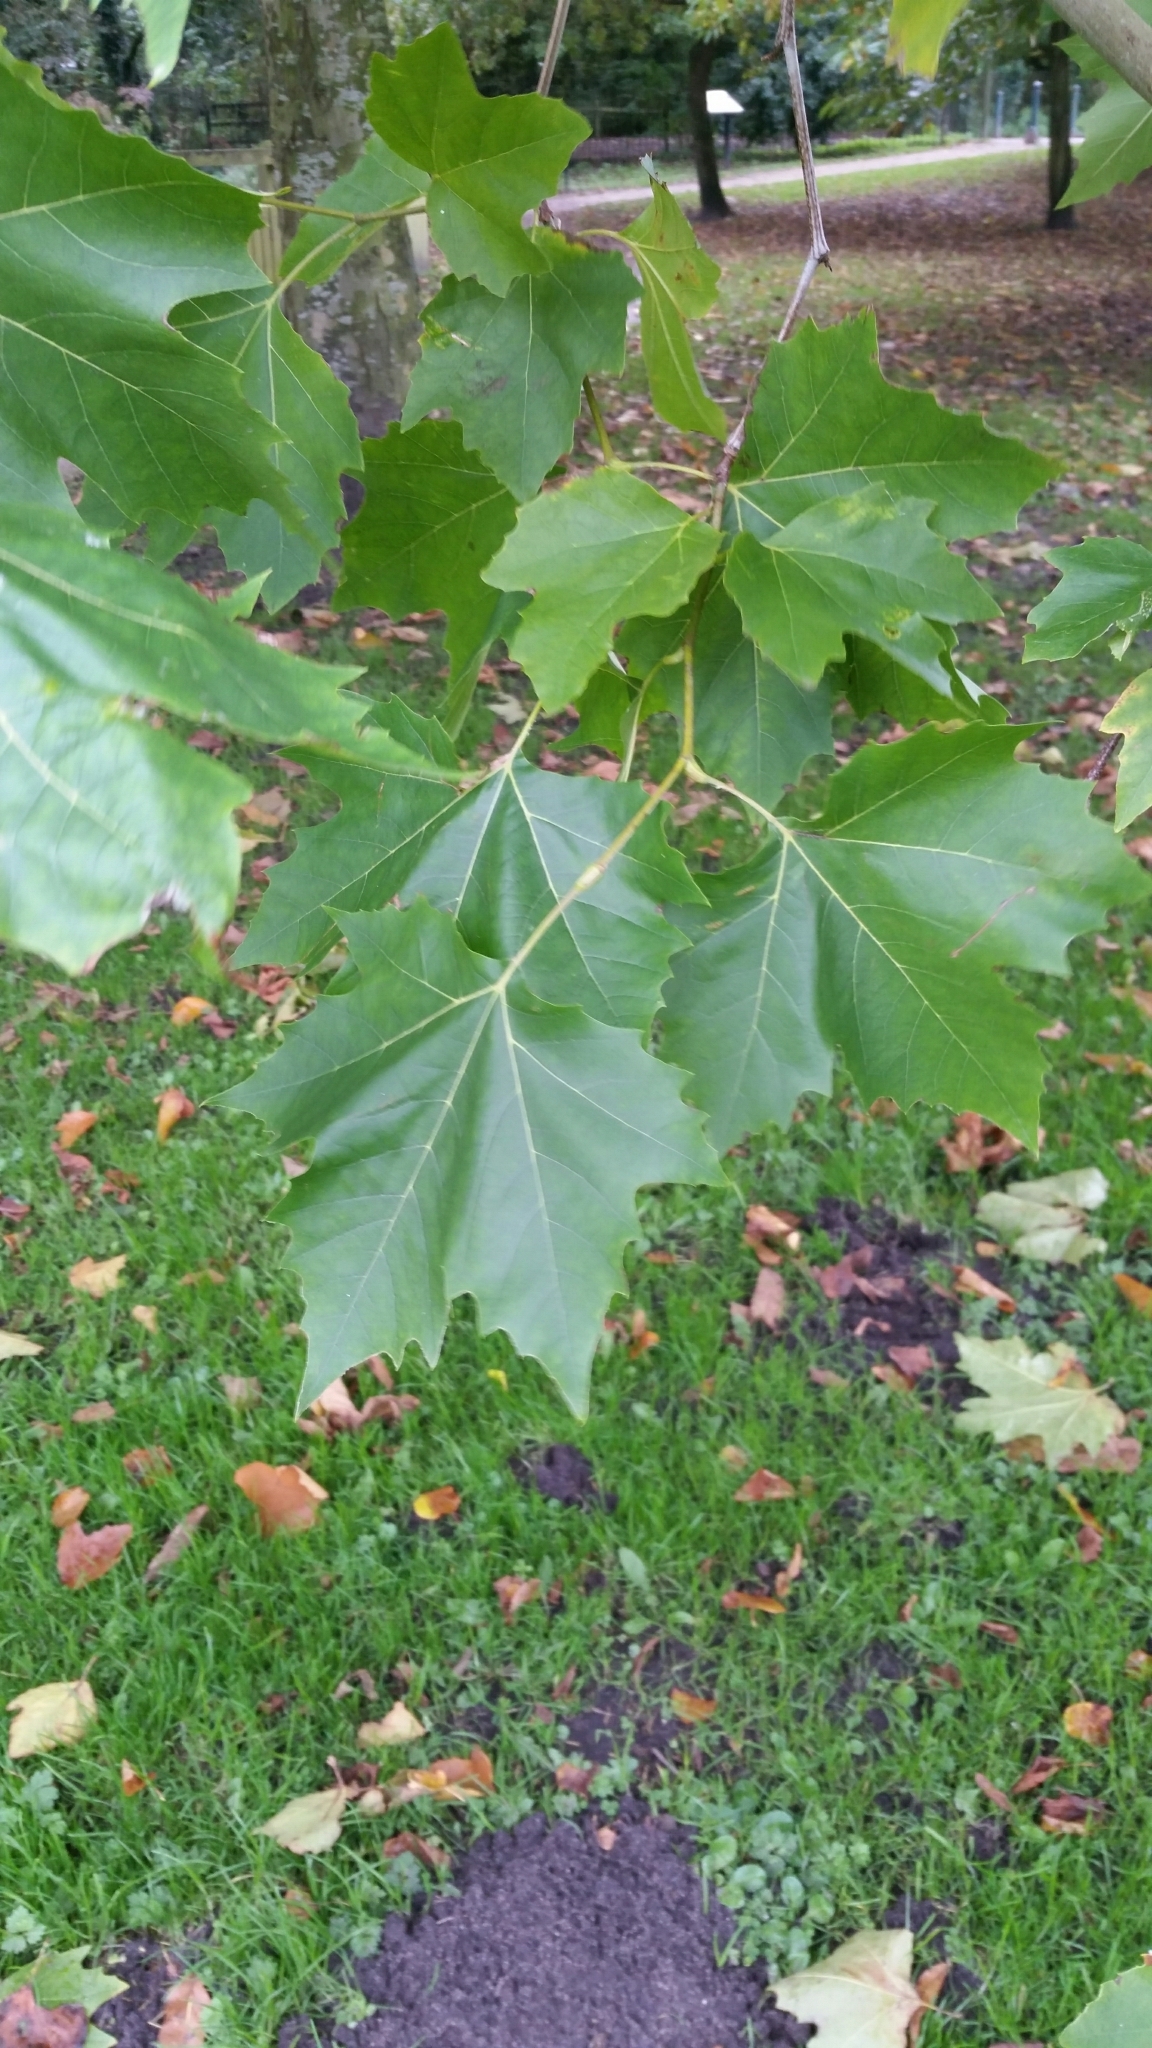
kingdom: Plantae
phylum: Tracheophyta
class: Magnoliopsida
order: Proteales
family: Platanaceae
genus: Platanus
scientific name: Platanus hispanica
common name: London plane
